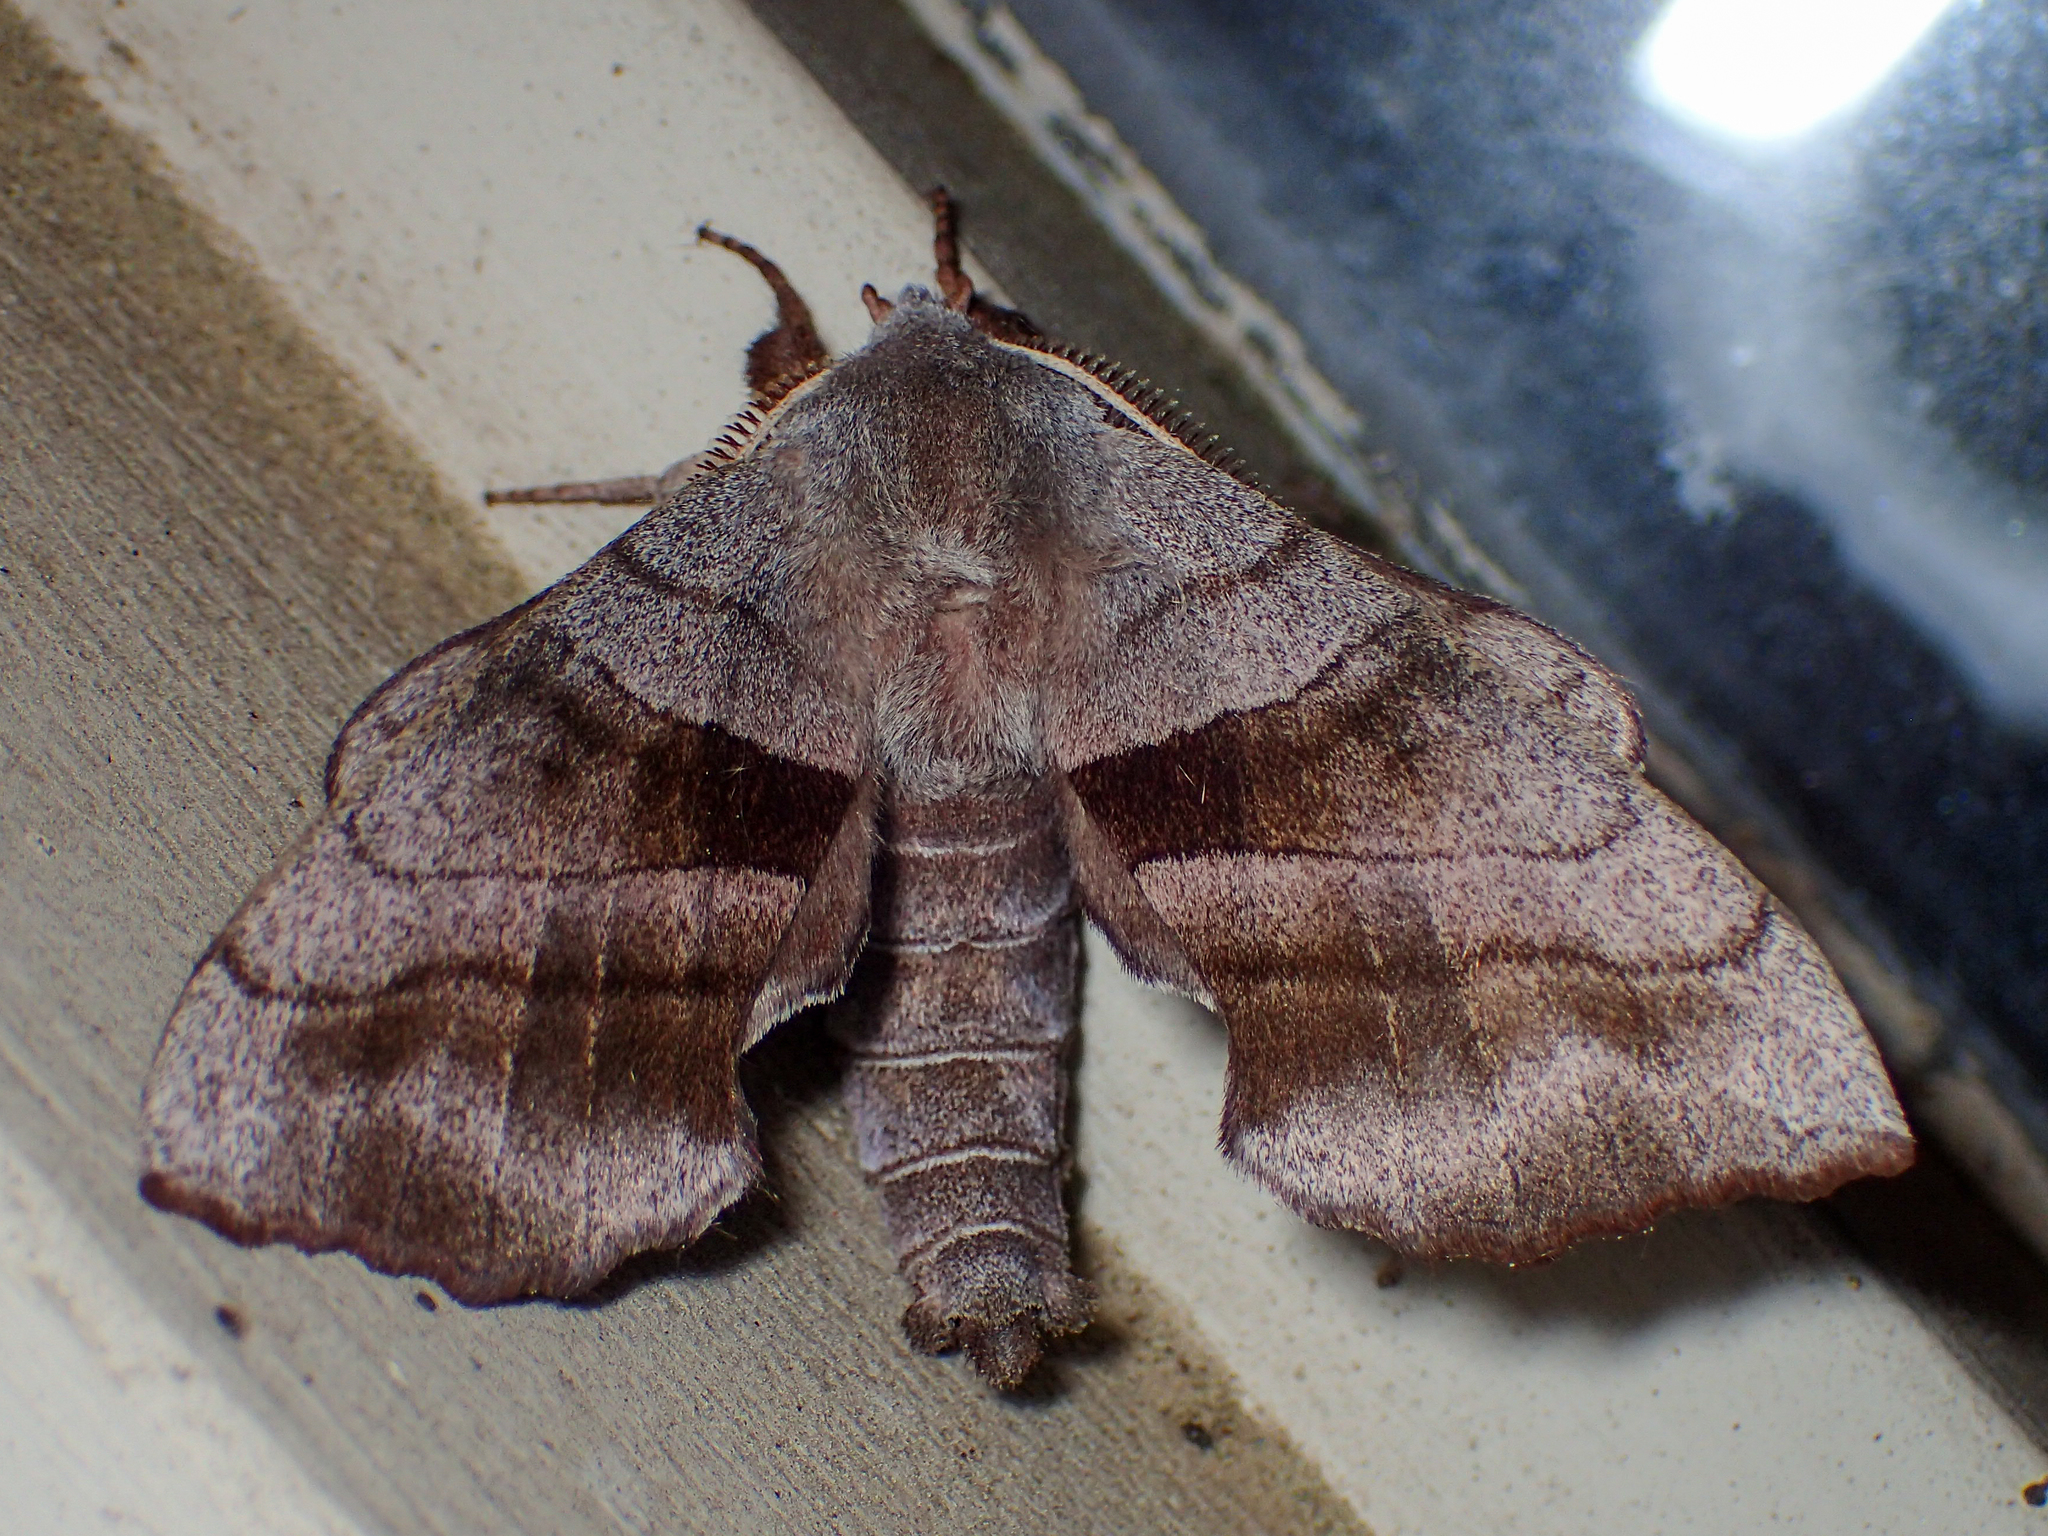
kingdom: Animalia
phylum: Arthropoda
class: Insecta
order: Lepidoptera
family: Sphingidae
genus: Amorpha
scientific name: Amorpha juglandis
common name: Walnut sphinx
